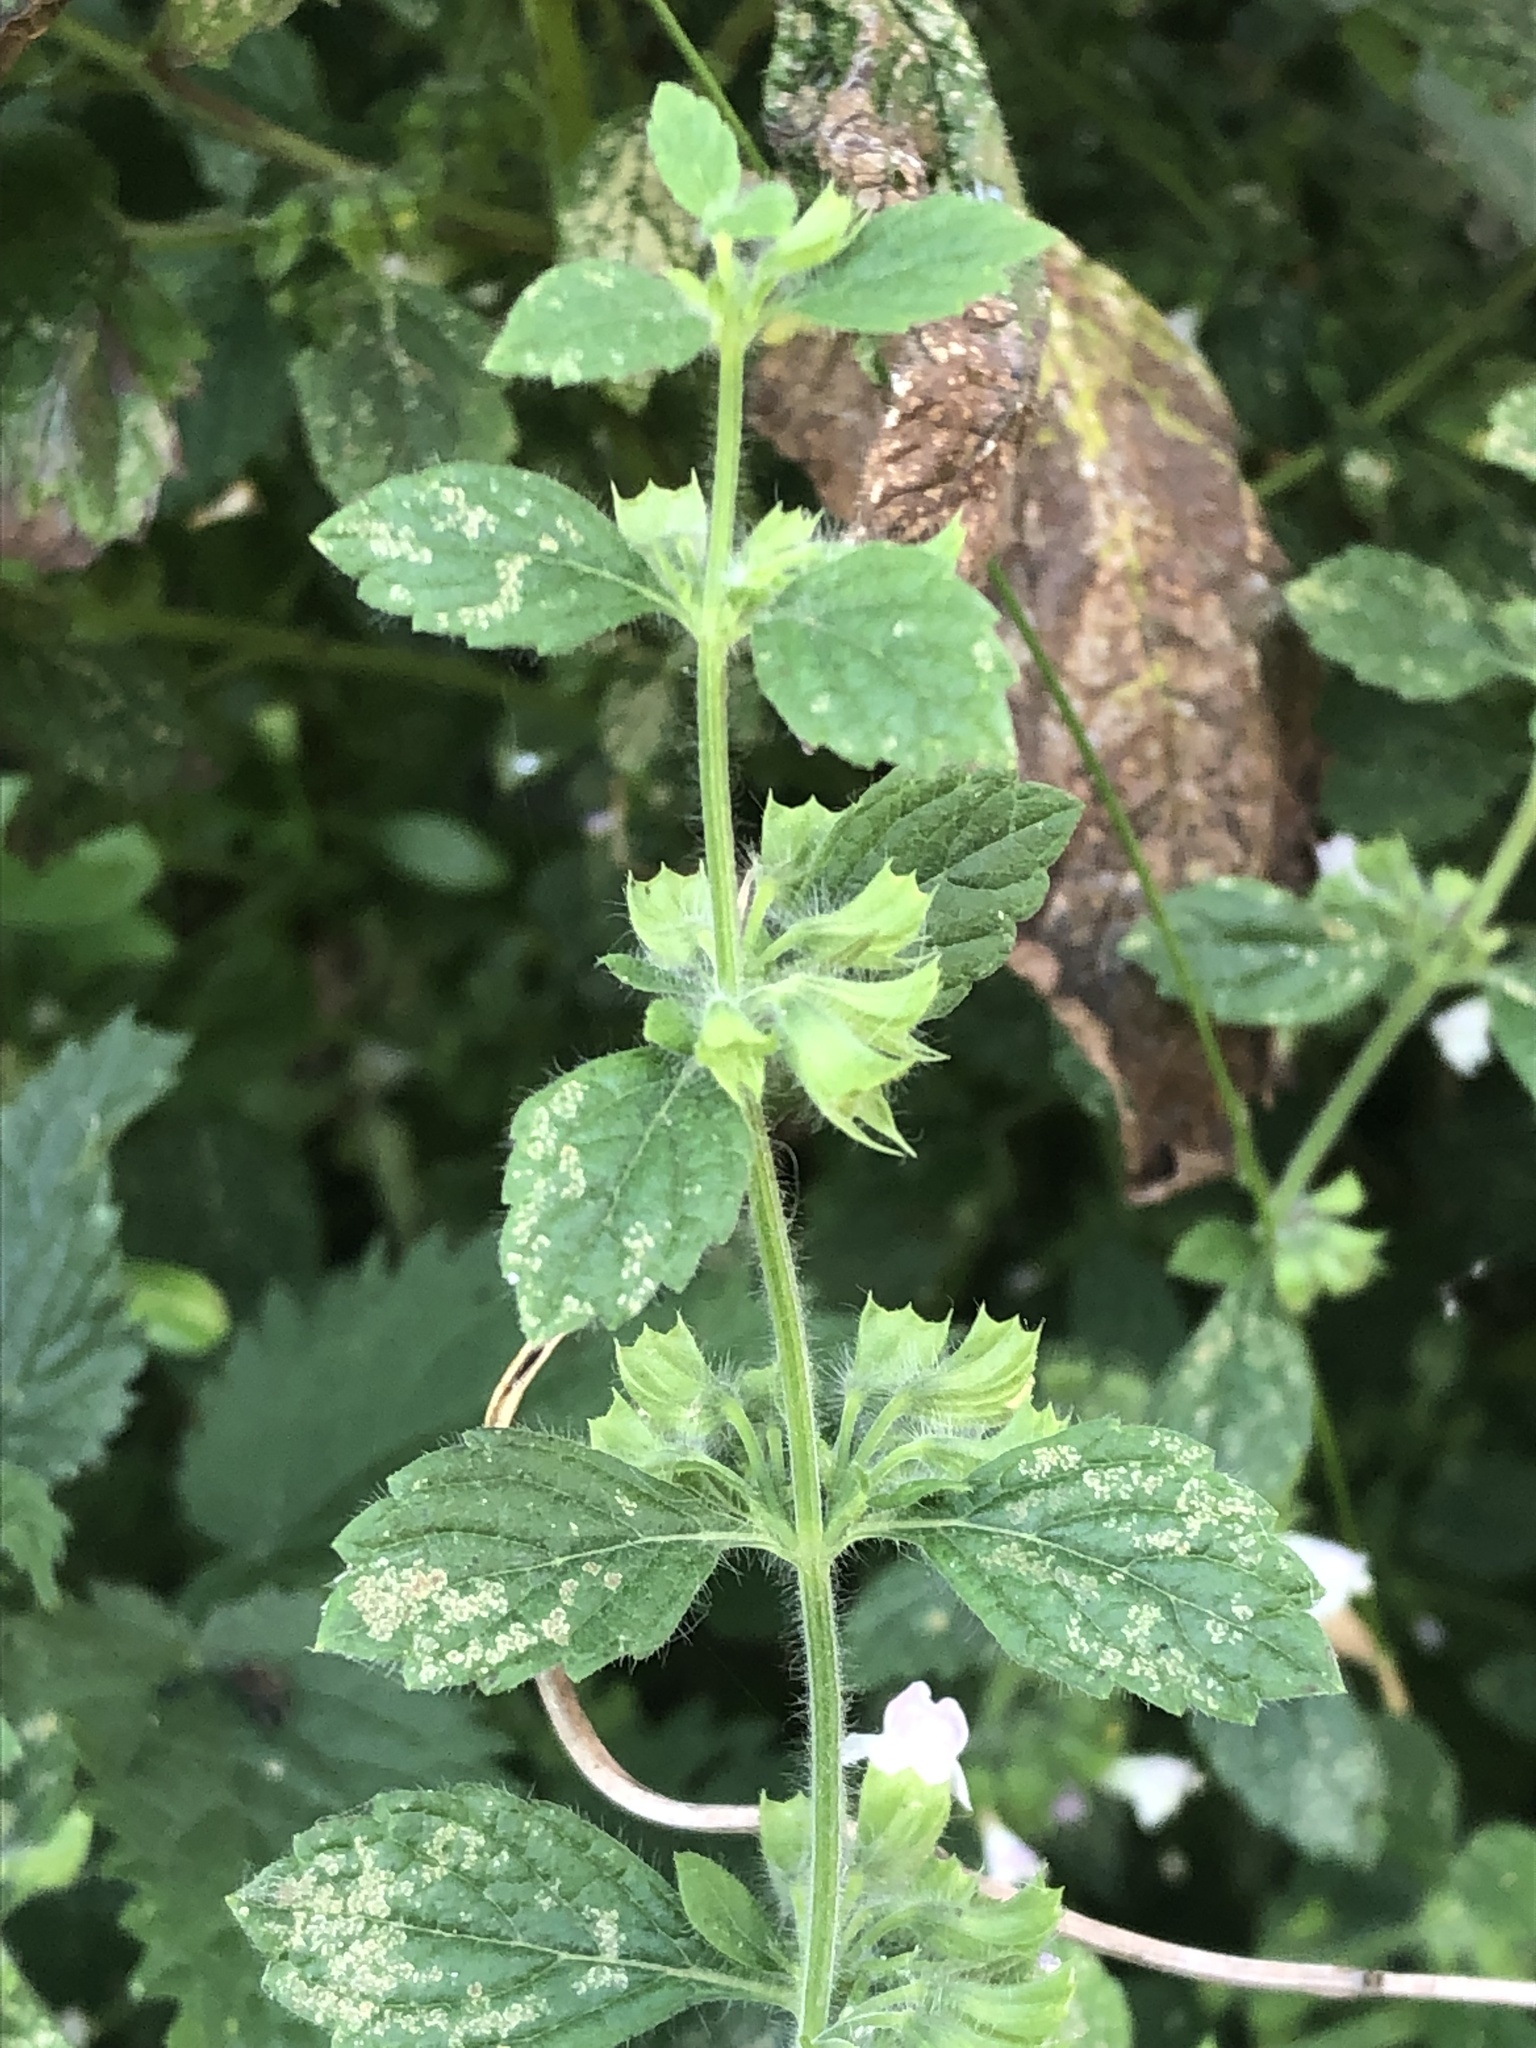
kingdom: Plantae
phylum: Tracheophyta
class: Magnoliopsida
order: Lamiales
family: Lamiaceae
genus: Melissa
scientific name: Melissa officinalis
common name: Balm
